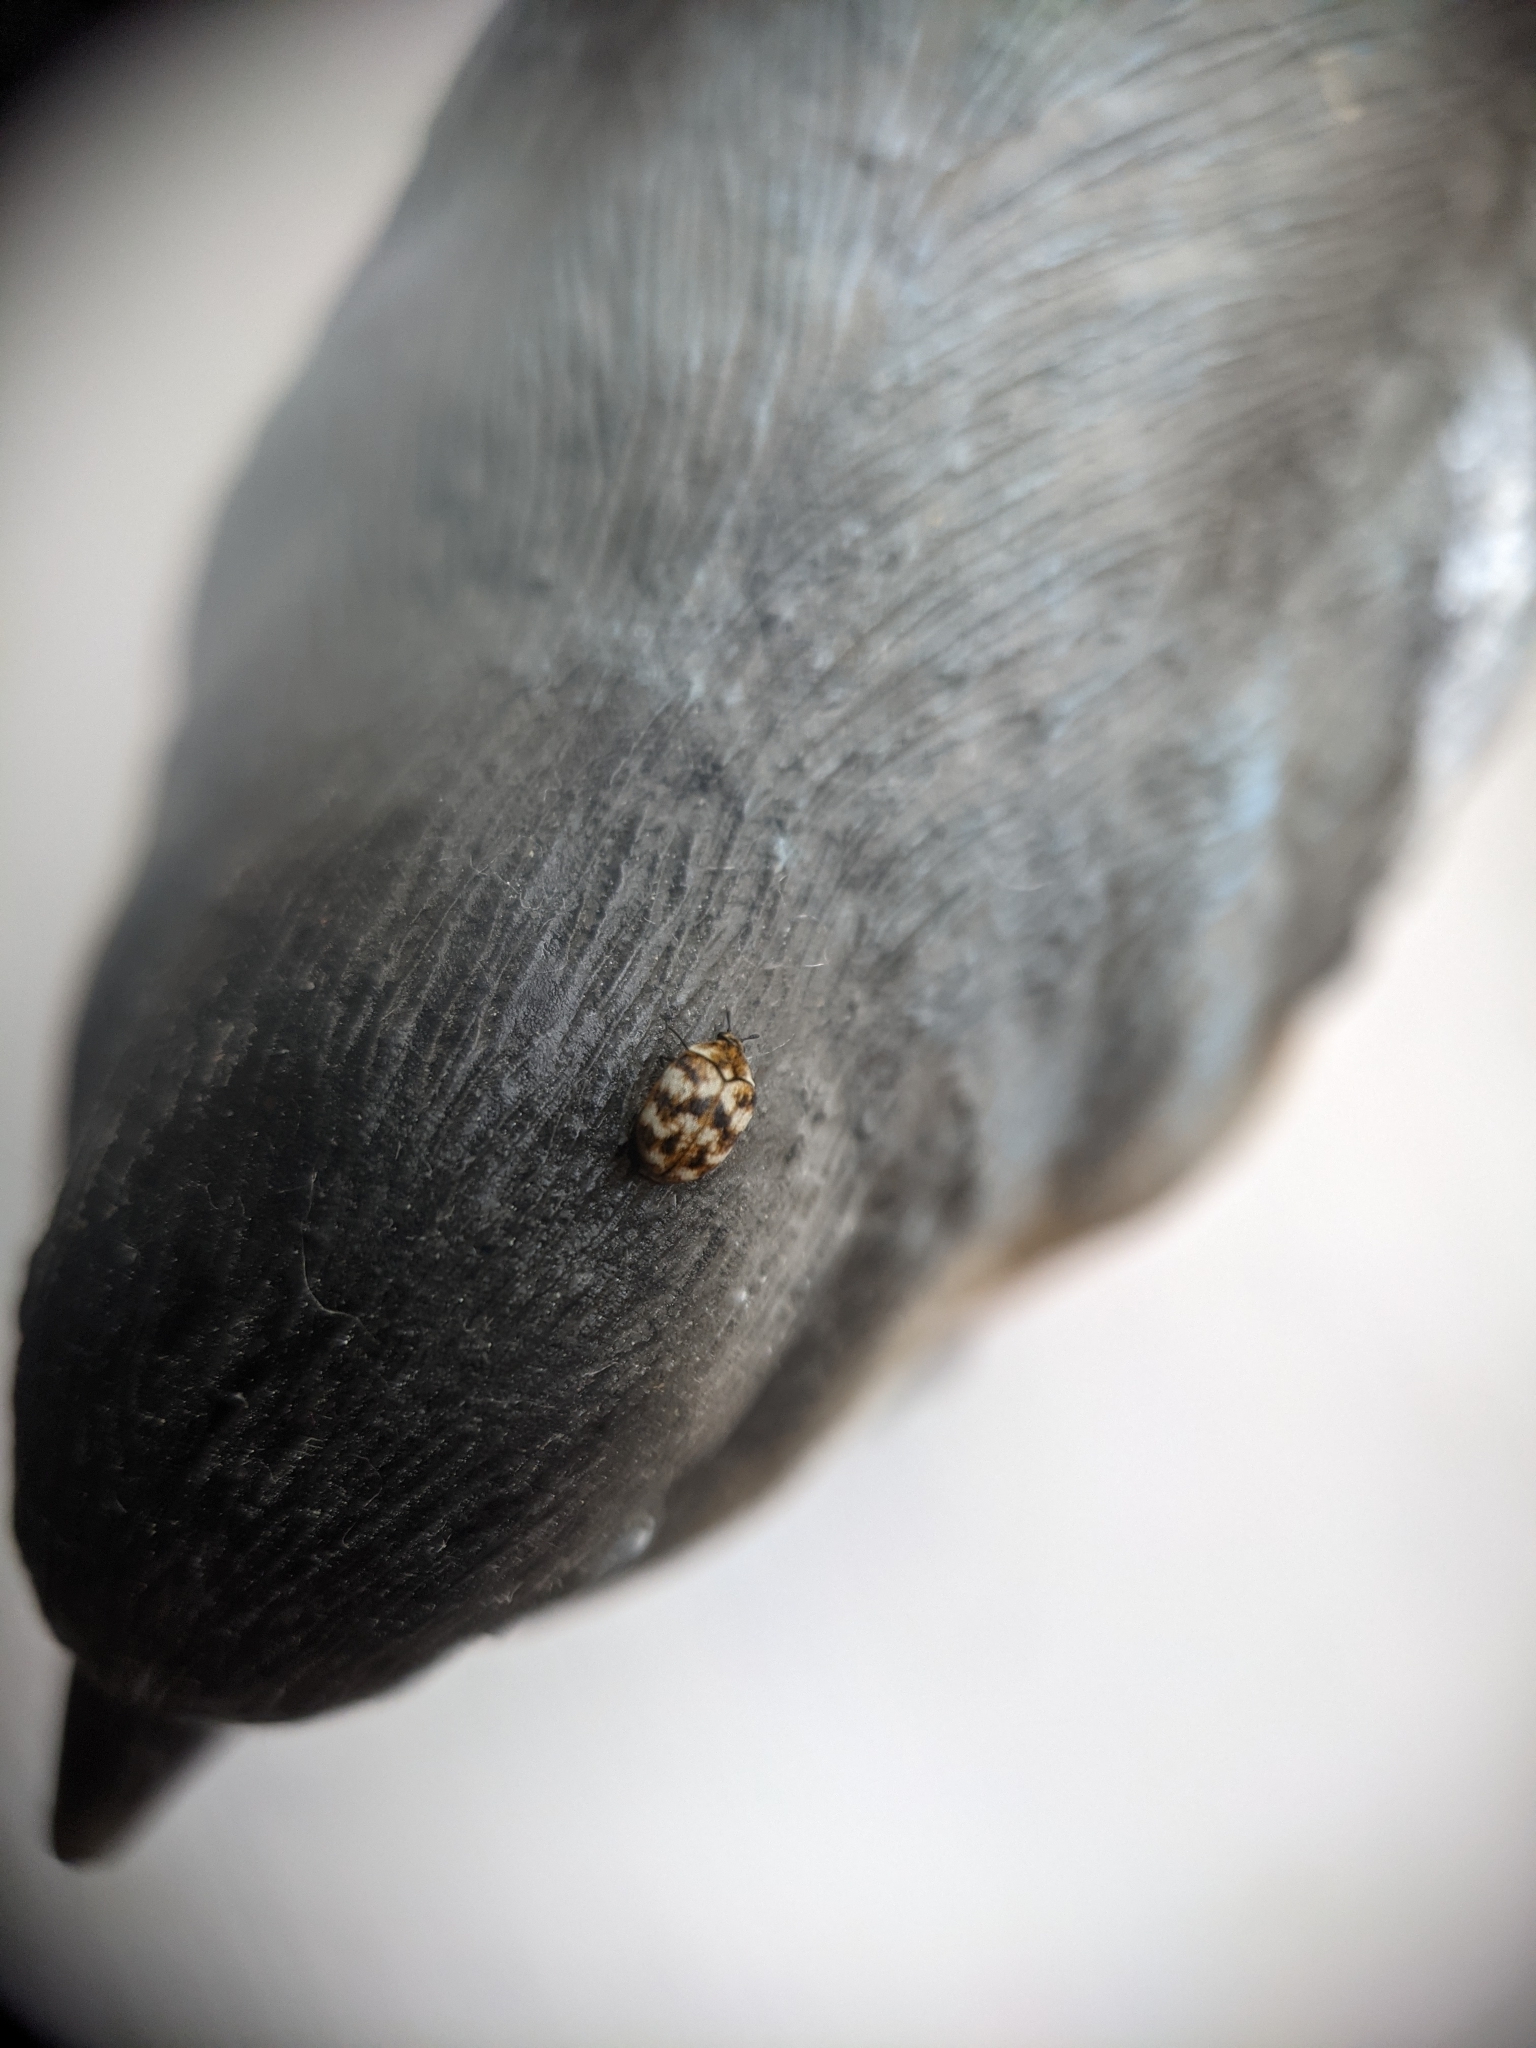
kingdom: Animalia
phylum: Arthropoda
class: Insecta
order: Coleoptera
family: Dermestidae
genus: Anthrenus
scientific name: Anthrenus verbasci
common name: Varied carpet beetle
